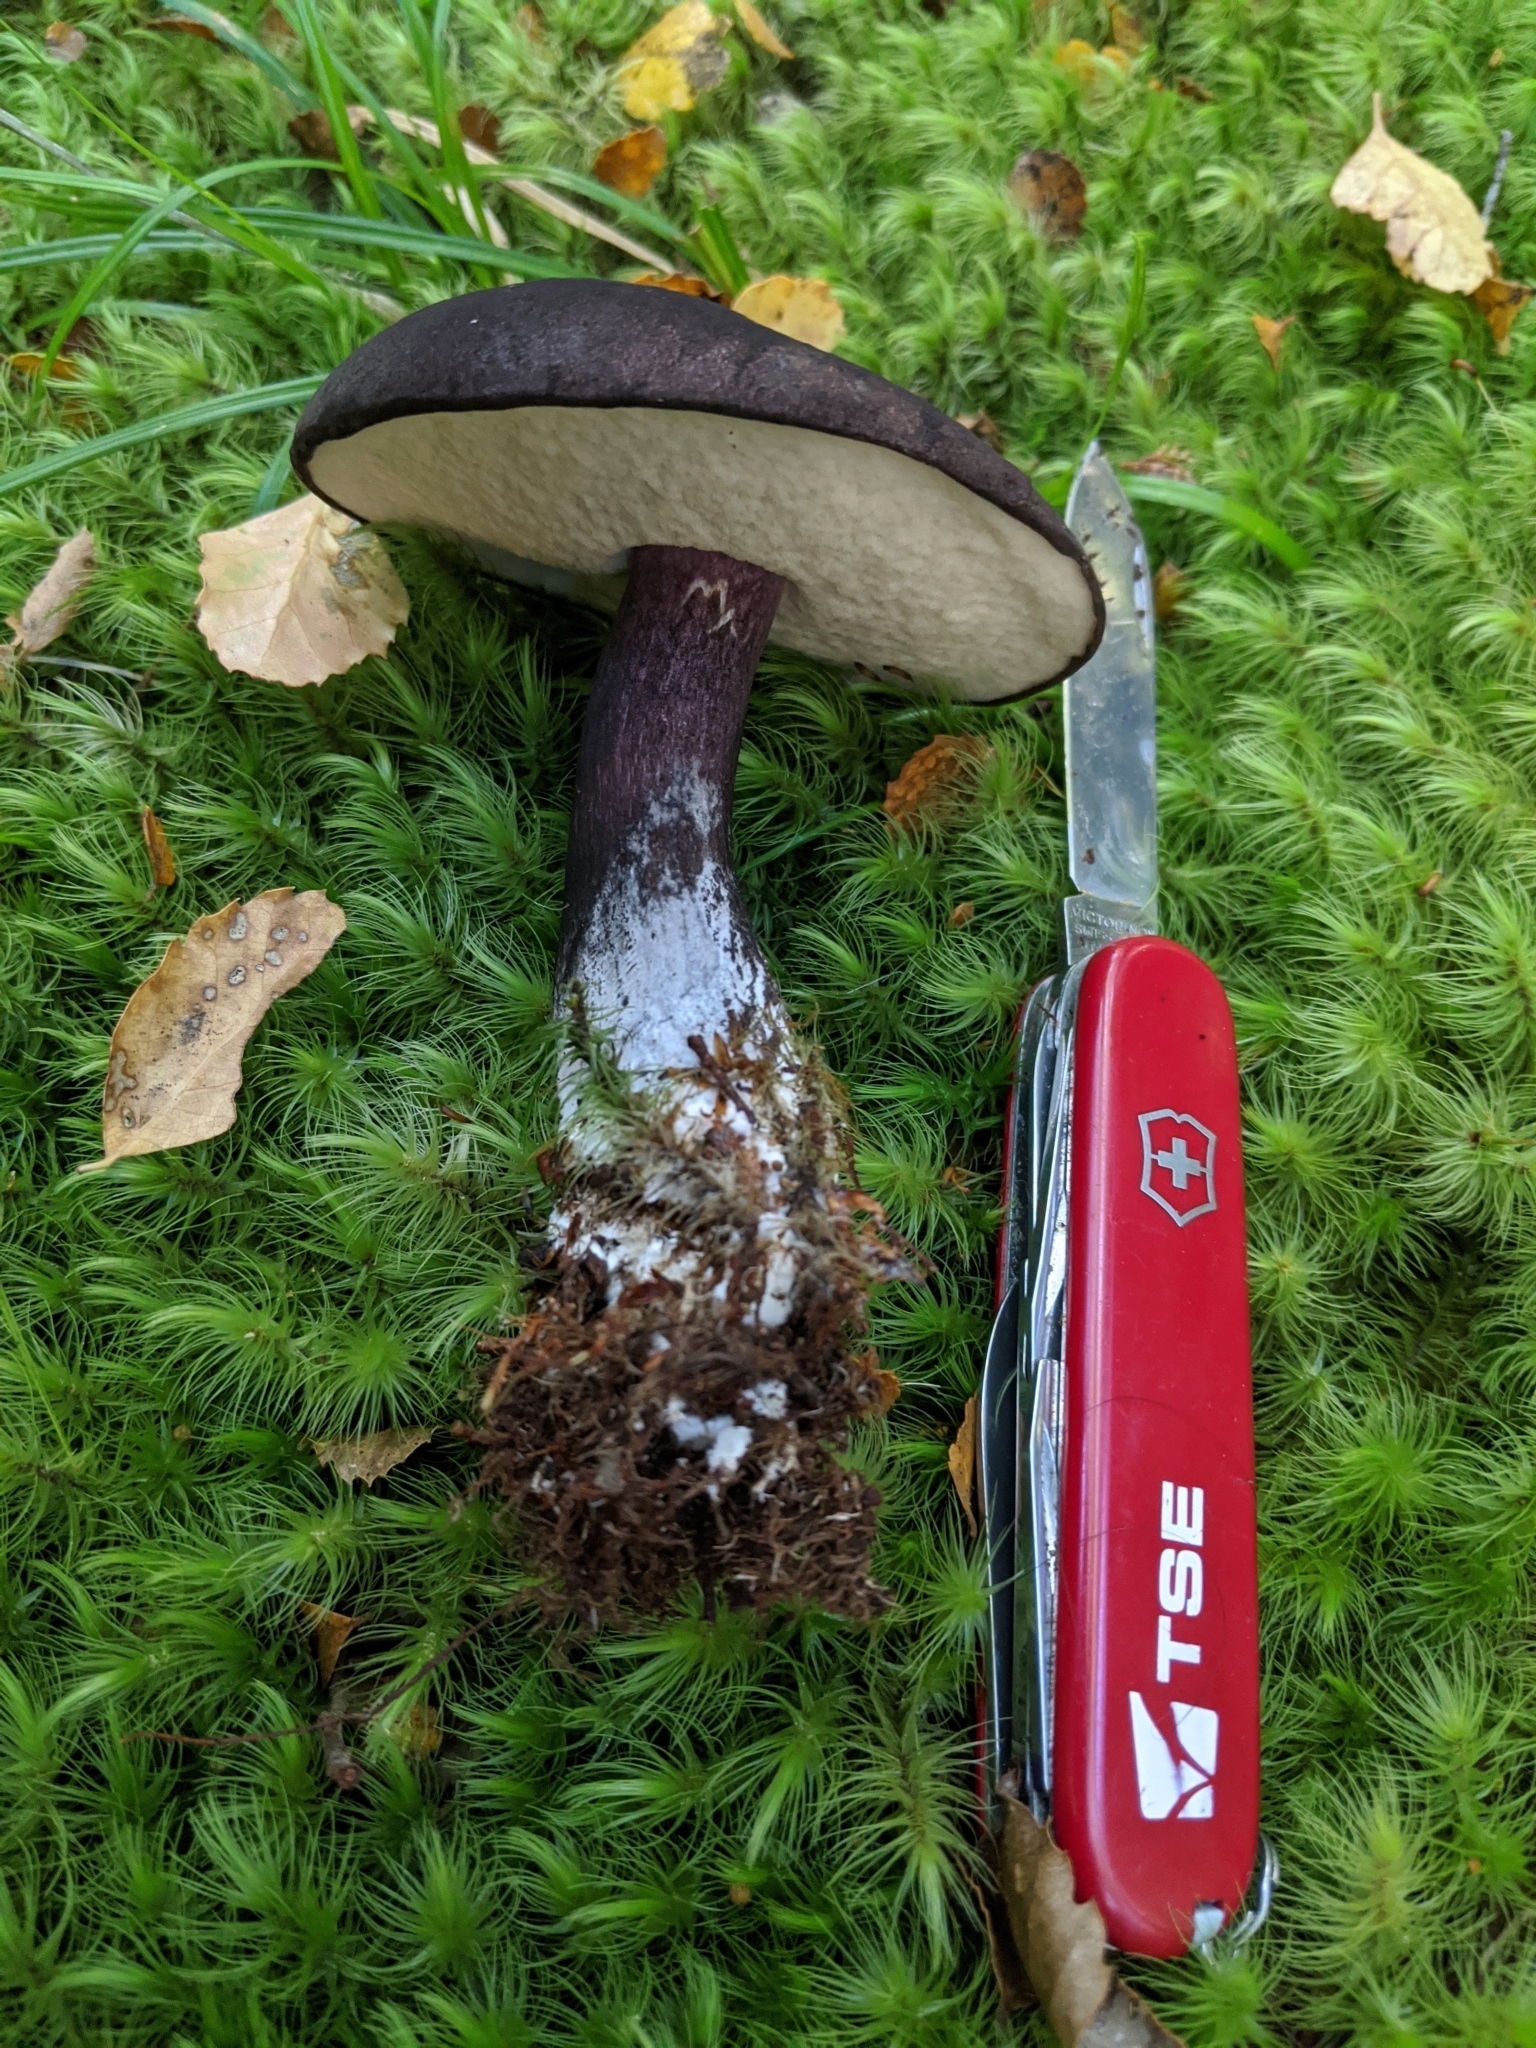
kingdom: Fungi
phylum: Basidiomycota
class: Agaricomycetes
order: Boletales
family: Boletaceae
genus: Porphyrellus
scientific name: Porphyrellus formosus
